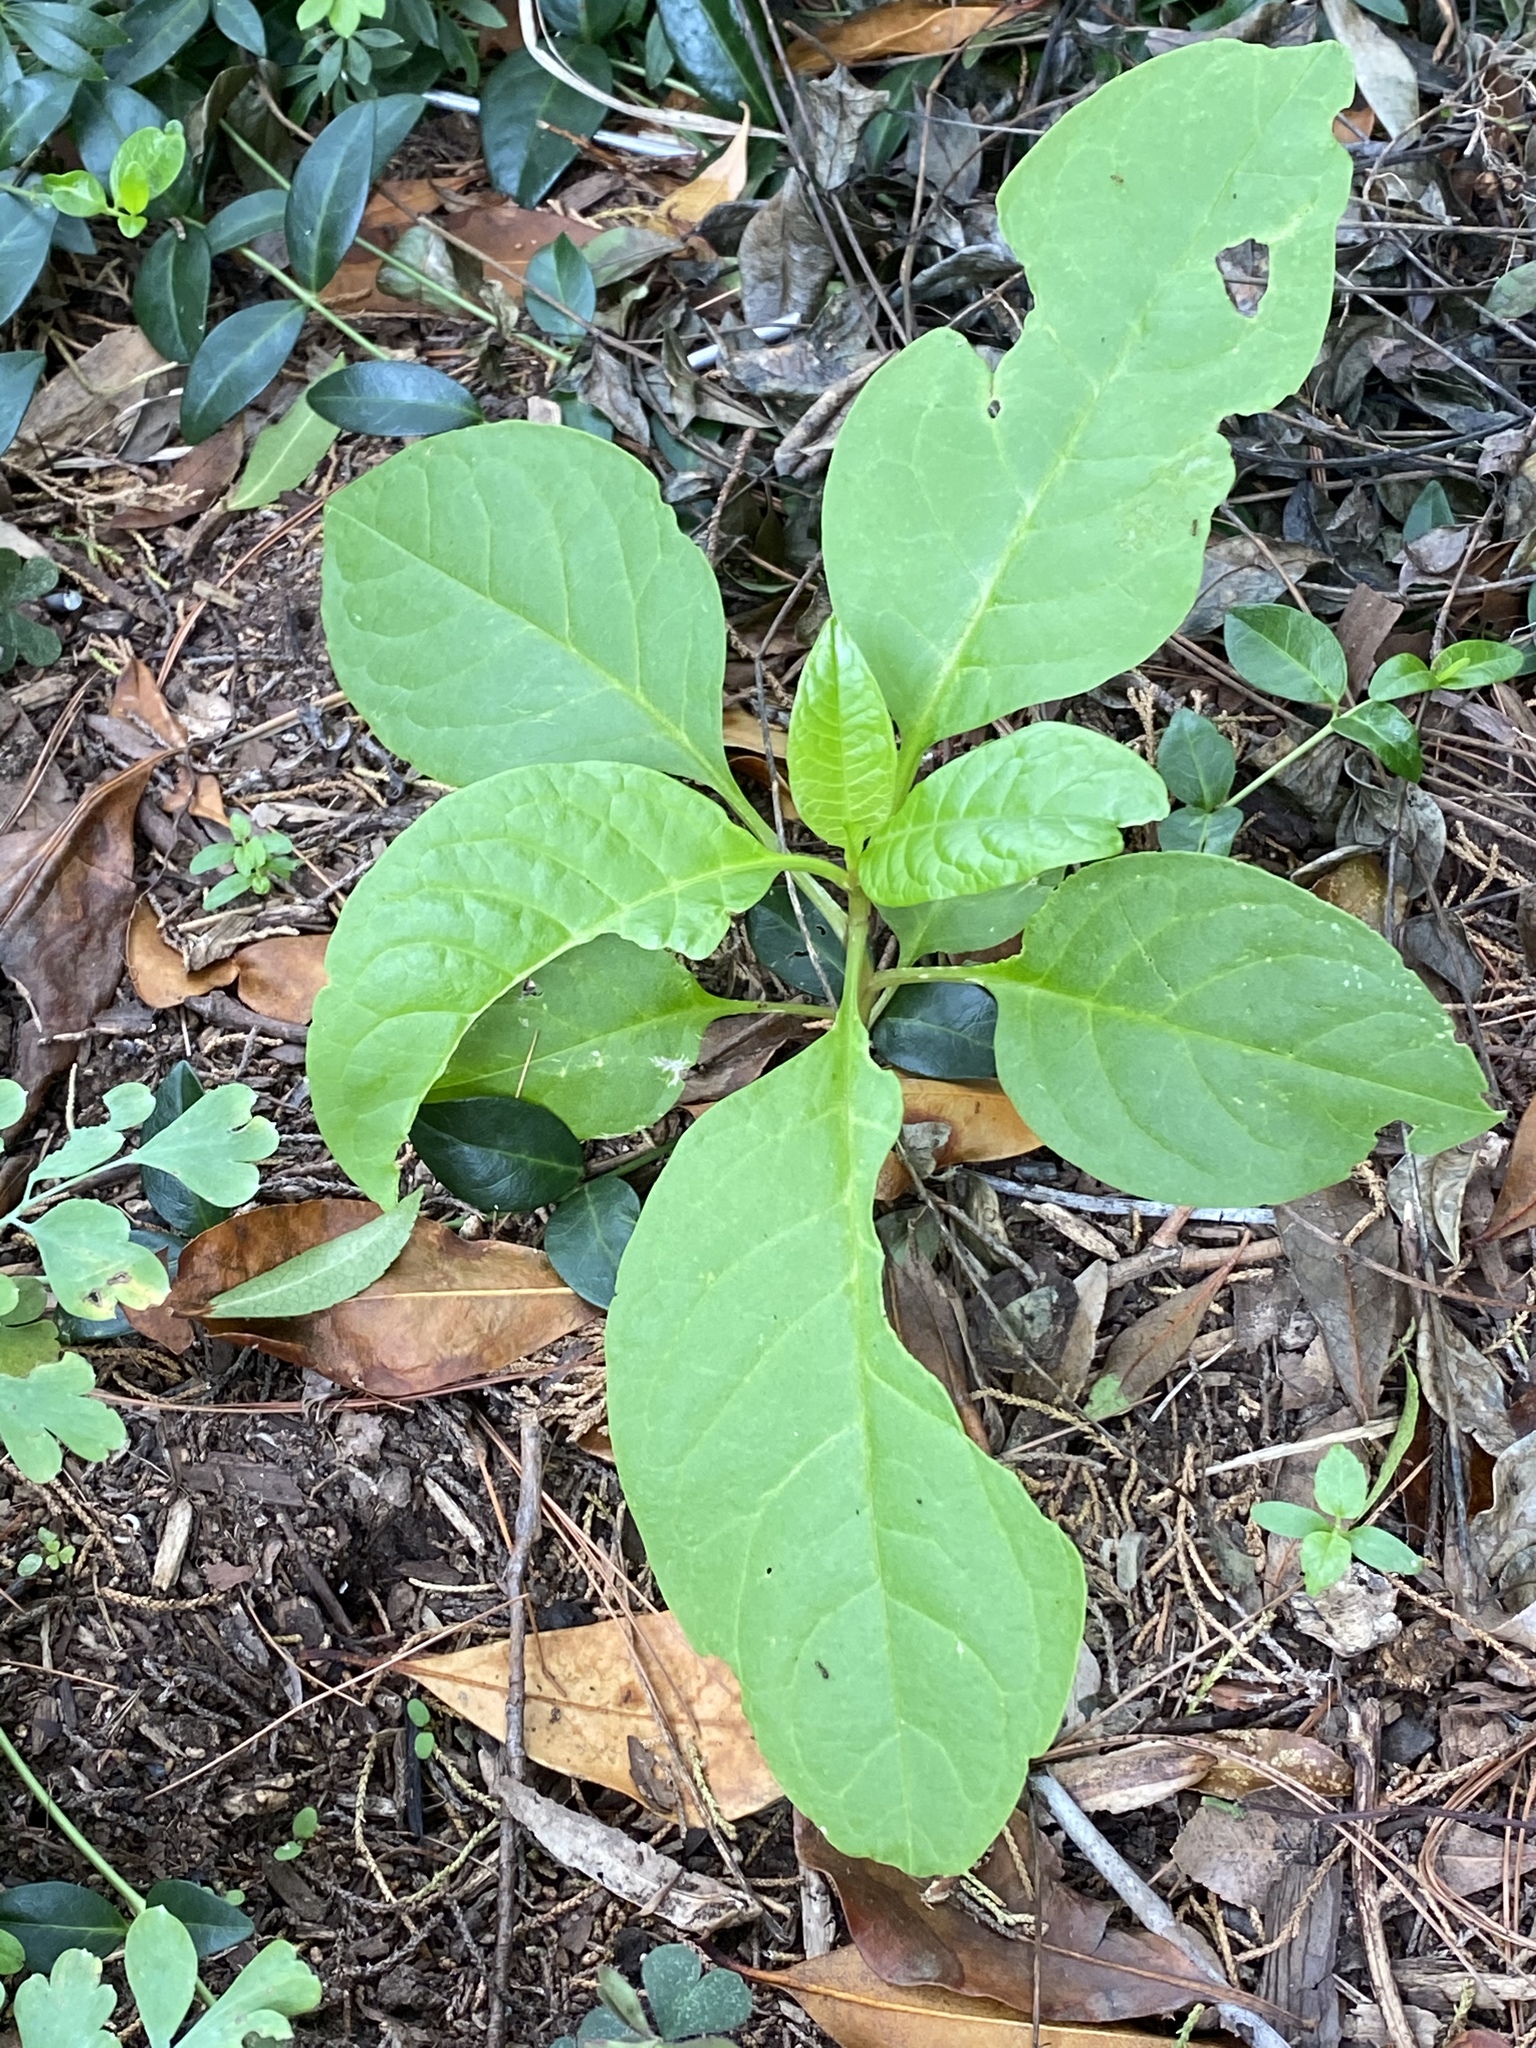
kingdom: Plantae
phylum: Tracheophyta
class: Magnoliopsida
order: Caryophyllales
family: Phytolaccaceae
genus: Phytolacca
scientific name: Phytolacca americana
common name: American pokeweed
